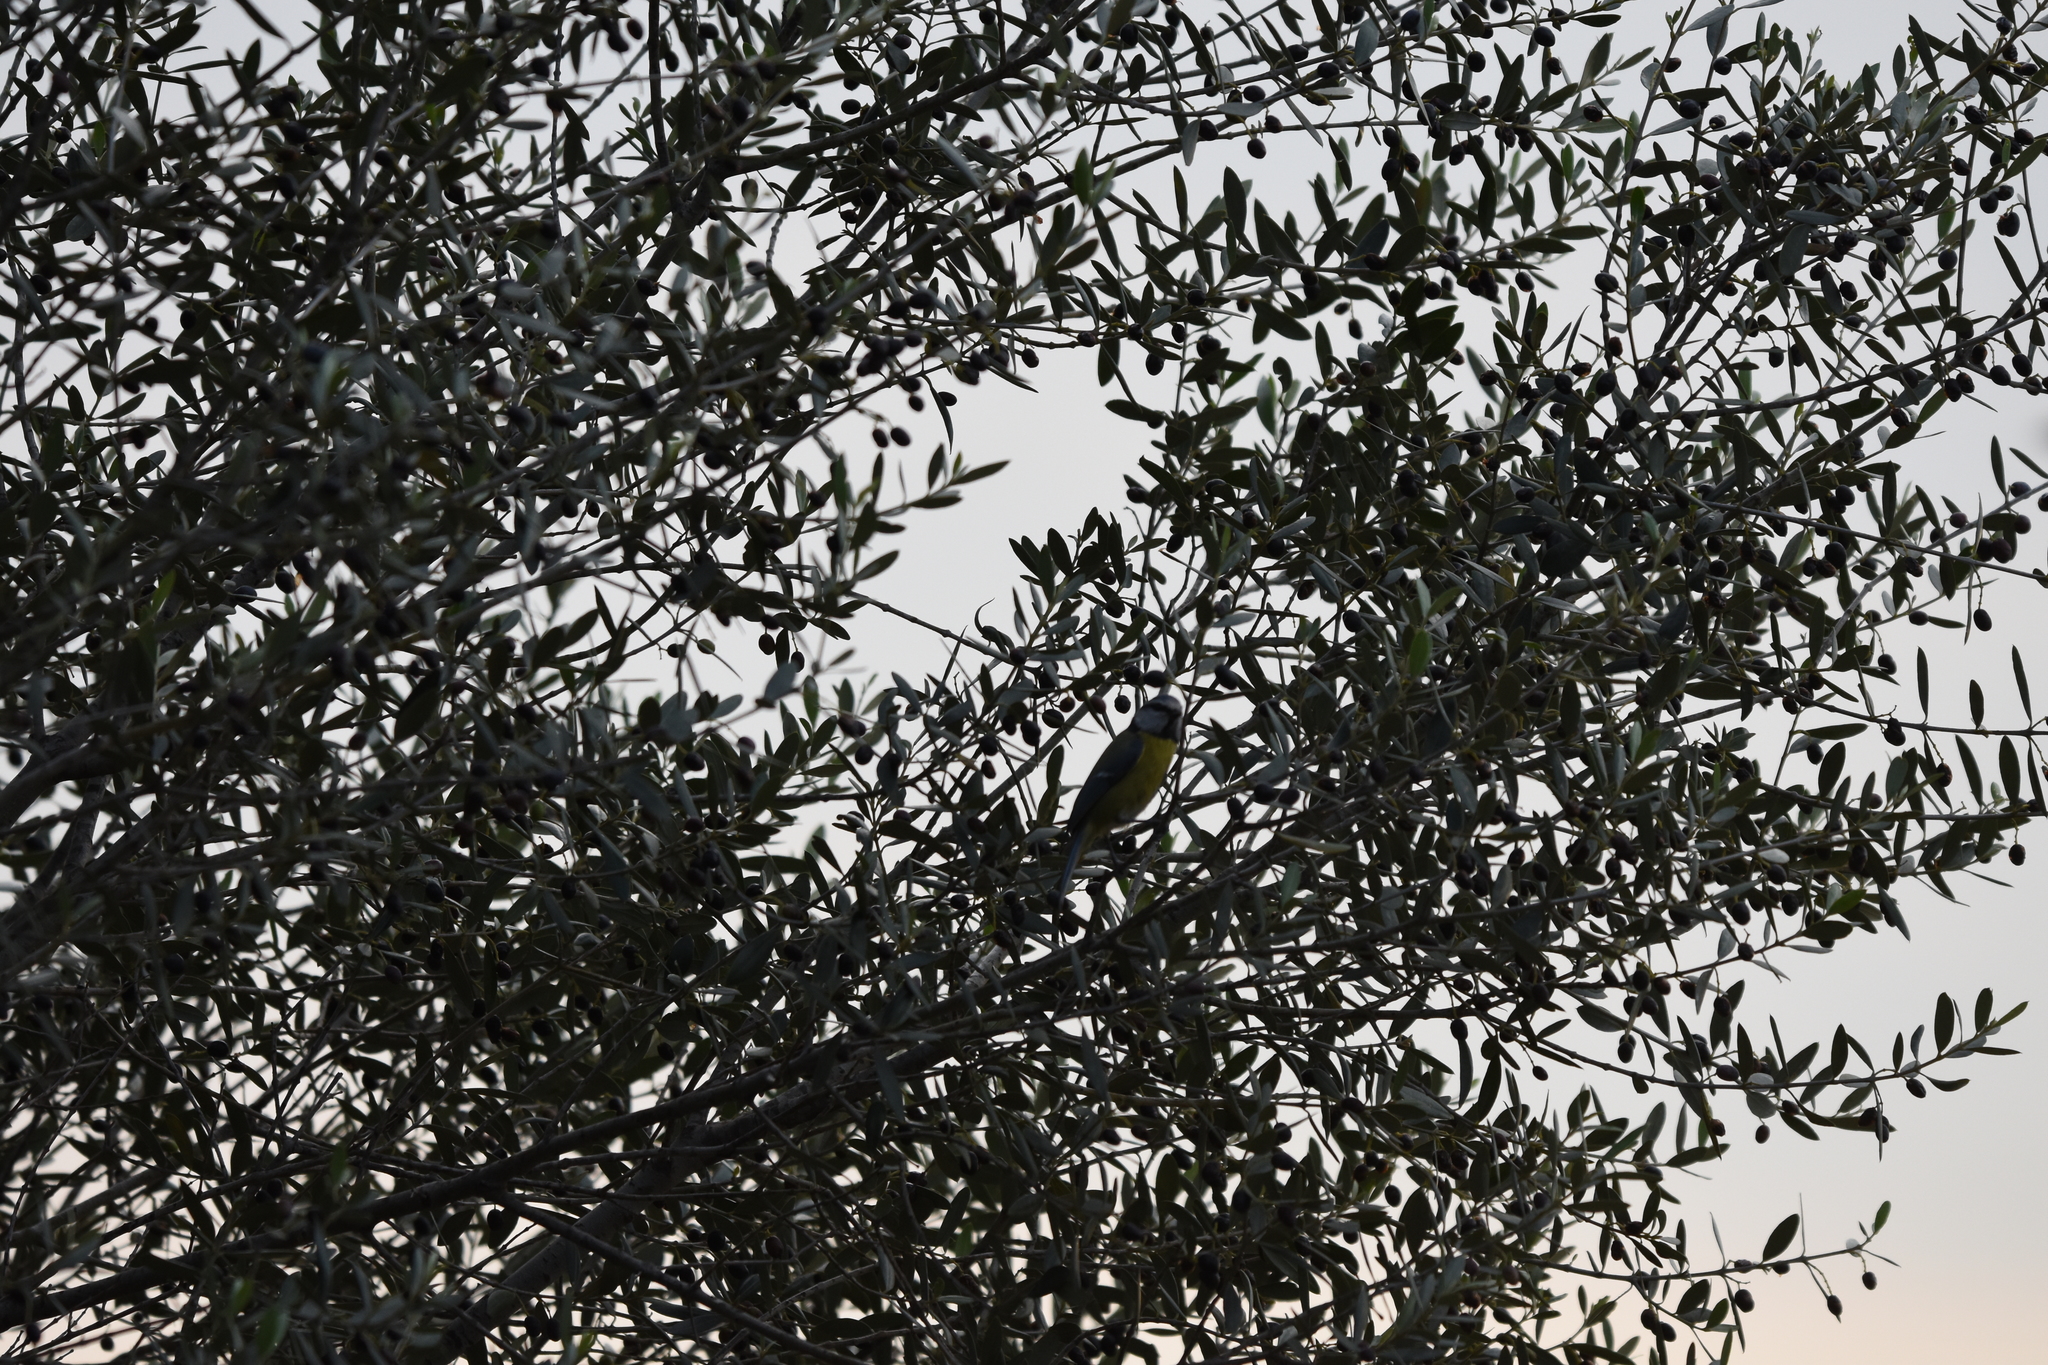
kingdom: Animalia
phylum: Chordata
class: Aves
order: Passeriformes
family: Paridae
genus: Cyanistes
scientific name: Cyanistes caeruleus
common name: Eurasian blue tit
